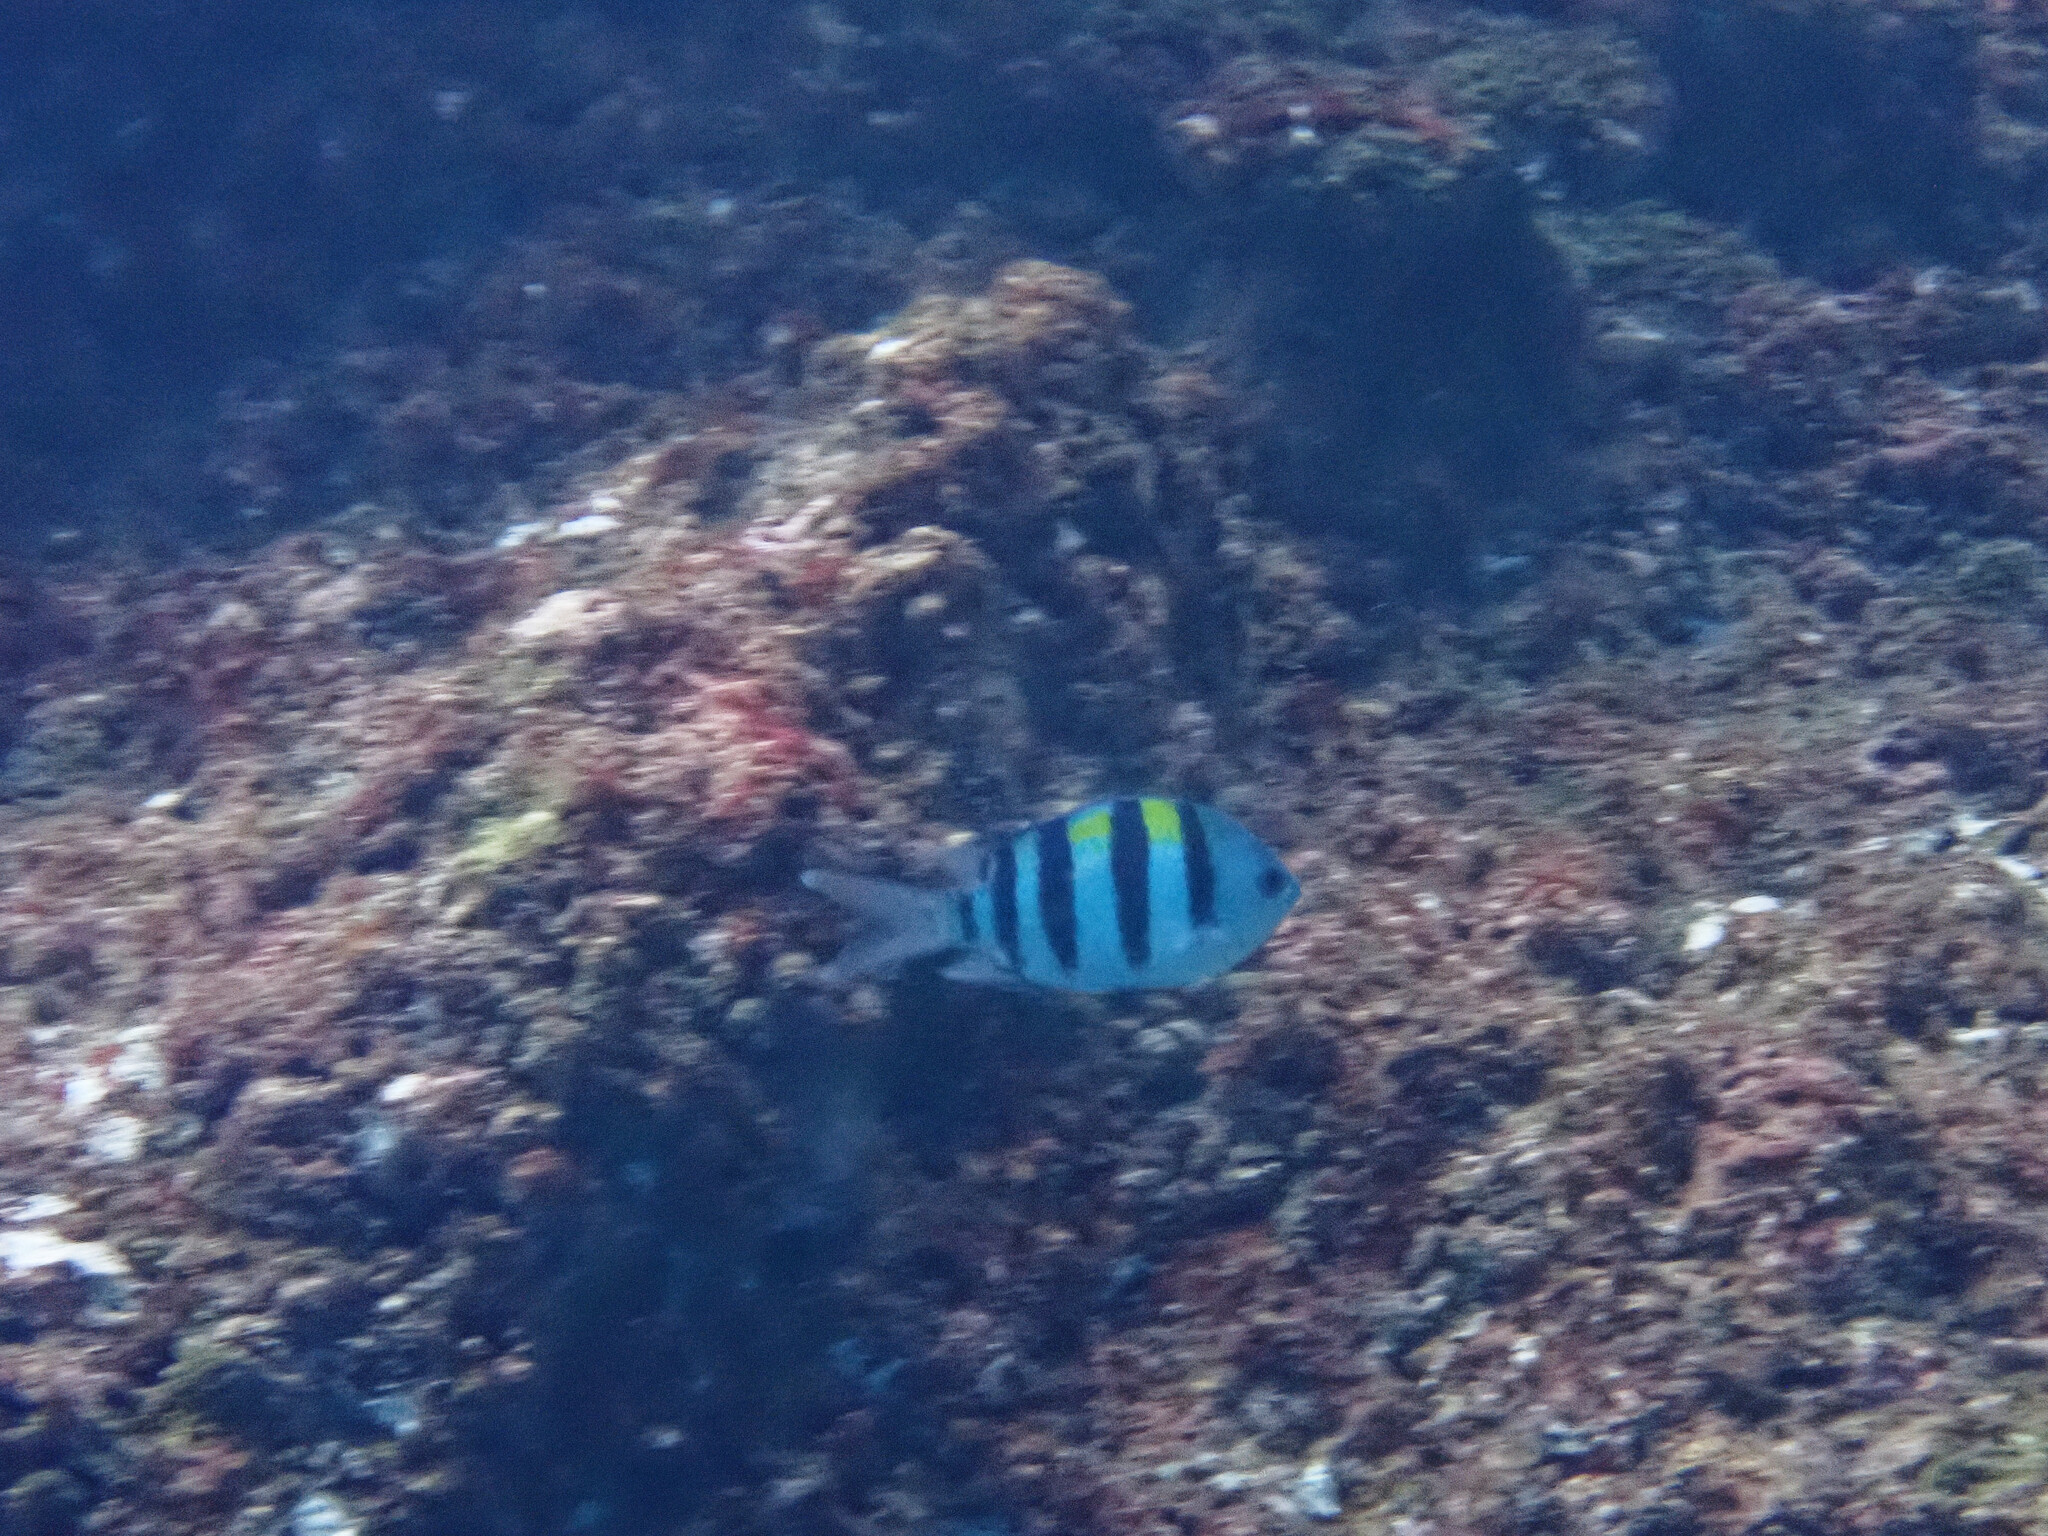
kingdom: Animalia
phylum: Chordata
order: Perciformes
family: Pomacentridae
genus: Abudefduf
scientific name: Abudefduf vaigiensis
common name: Indo-pacific sergeant
